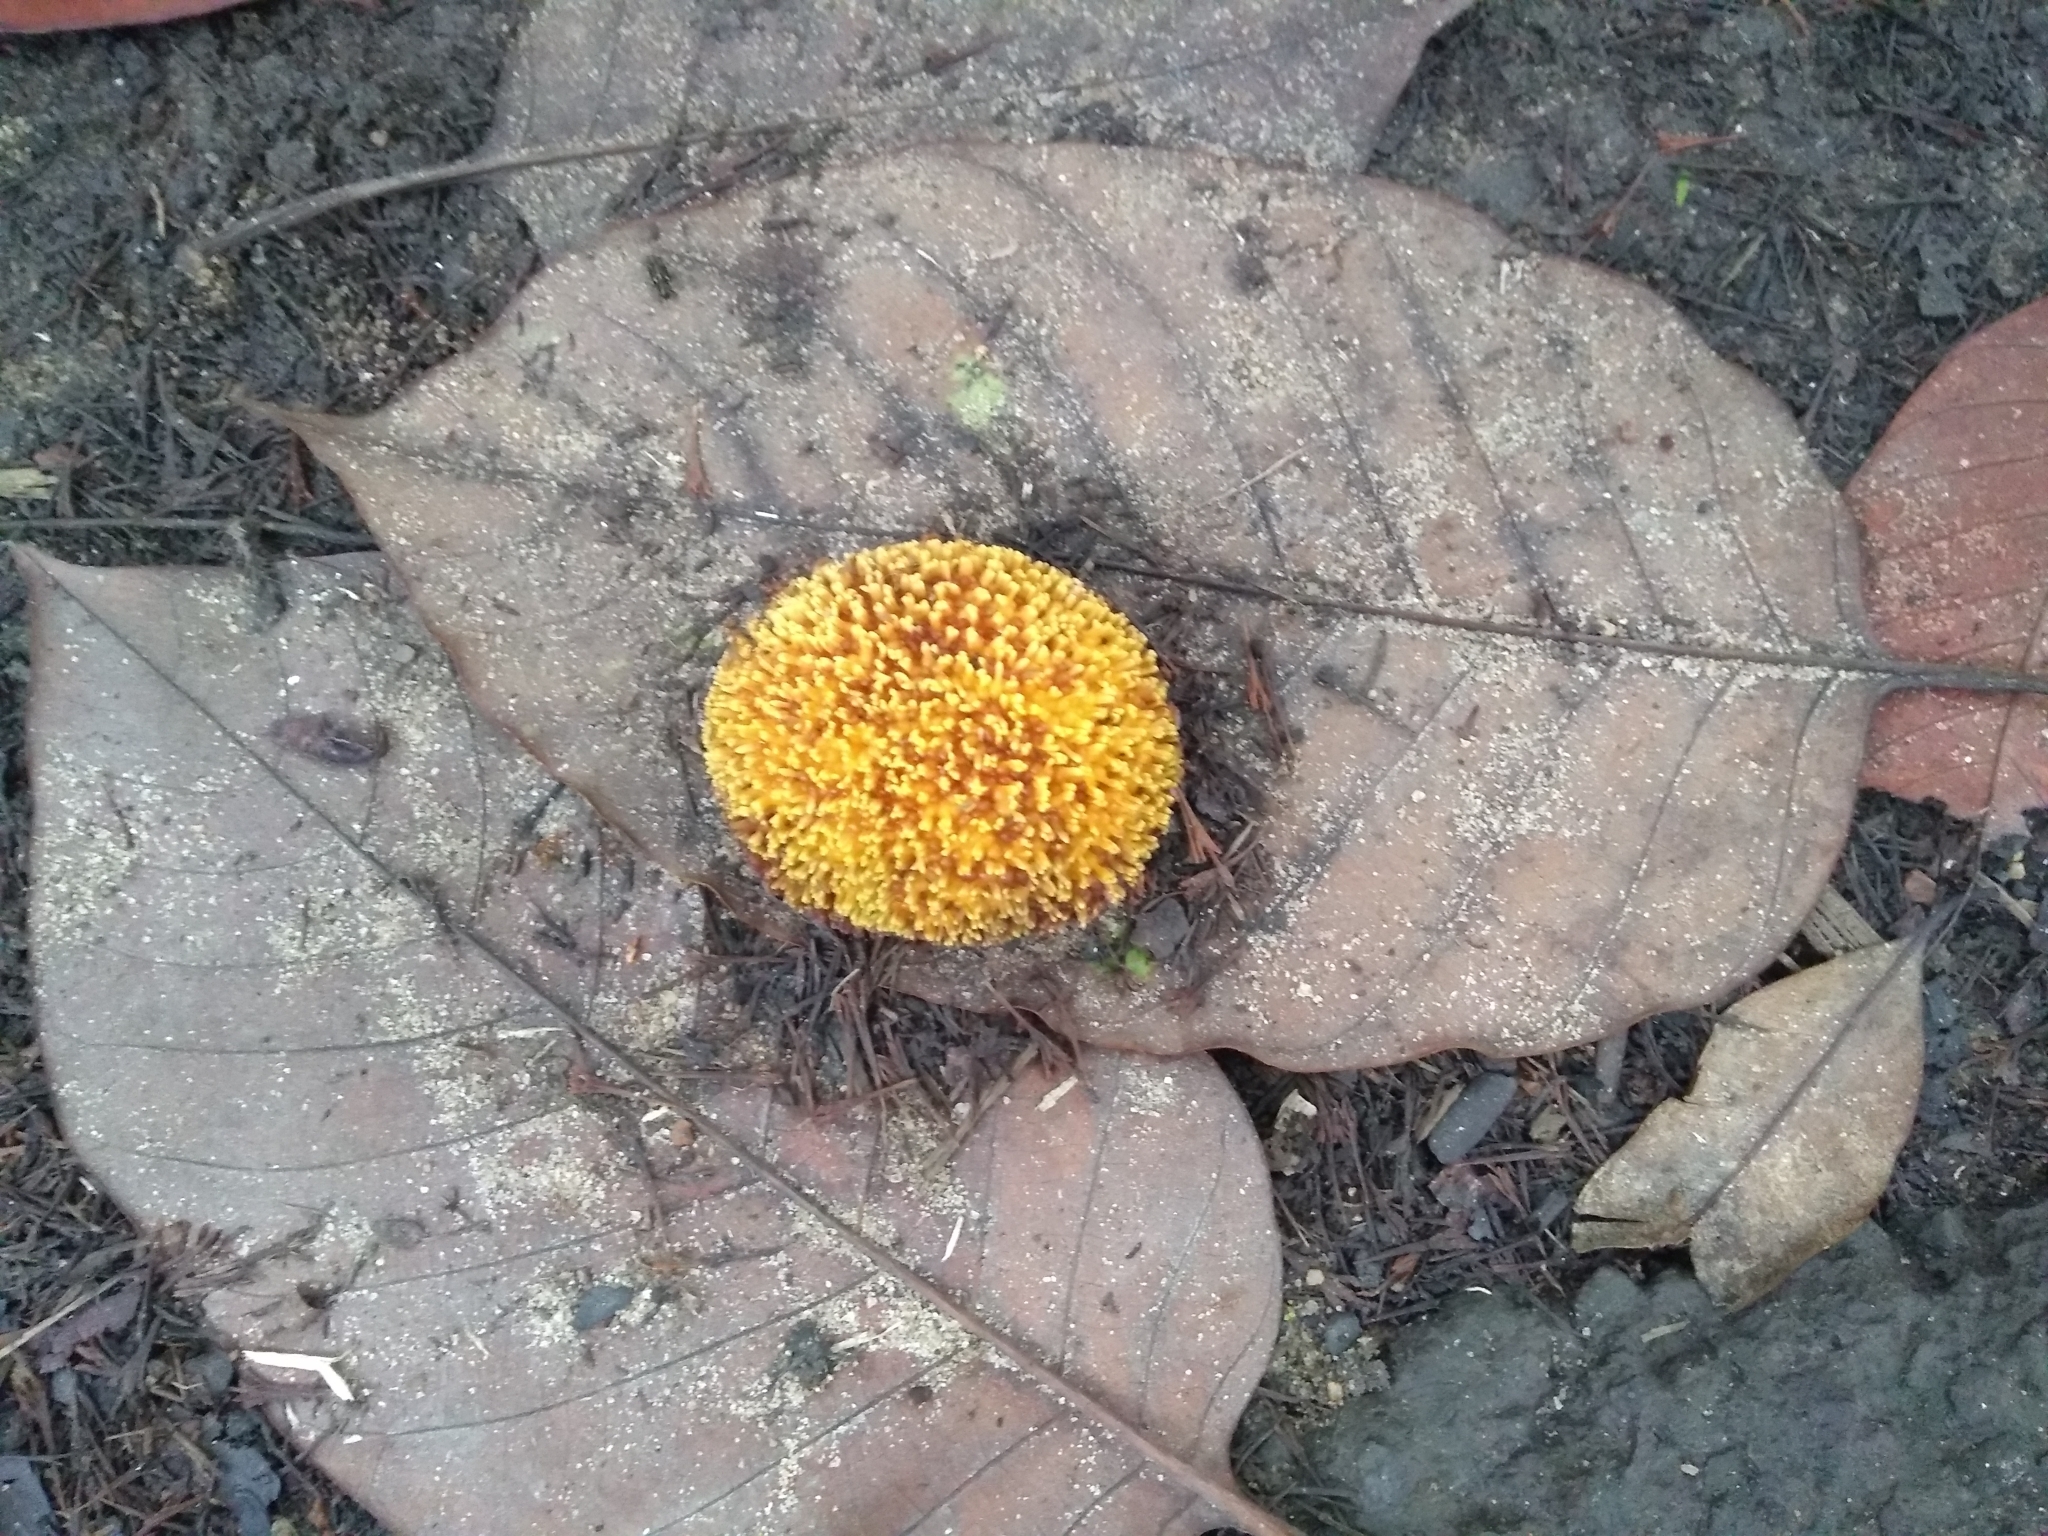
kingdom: Plantae
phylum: Tracheophyta
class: Magnoliopsida
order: Gentianales
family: Rubiaceae
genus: Neolamarckia
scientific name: Neolamarckia cadamba
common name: Leichhardt-pine
